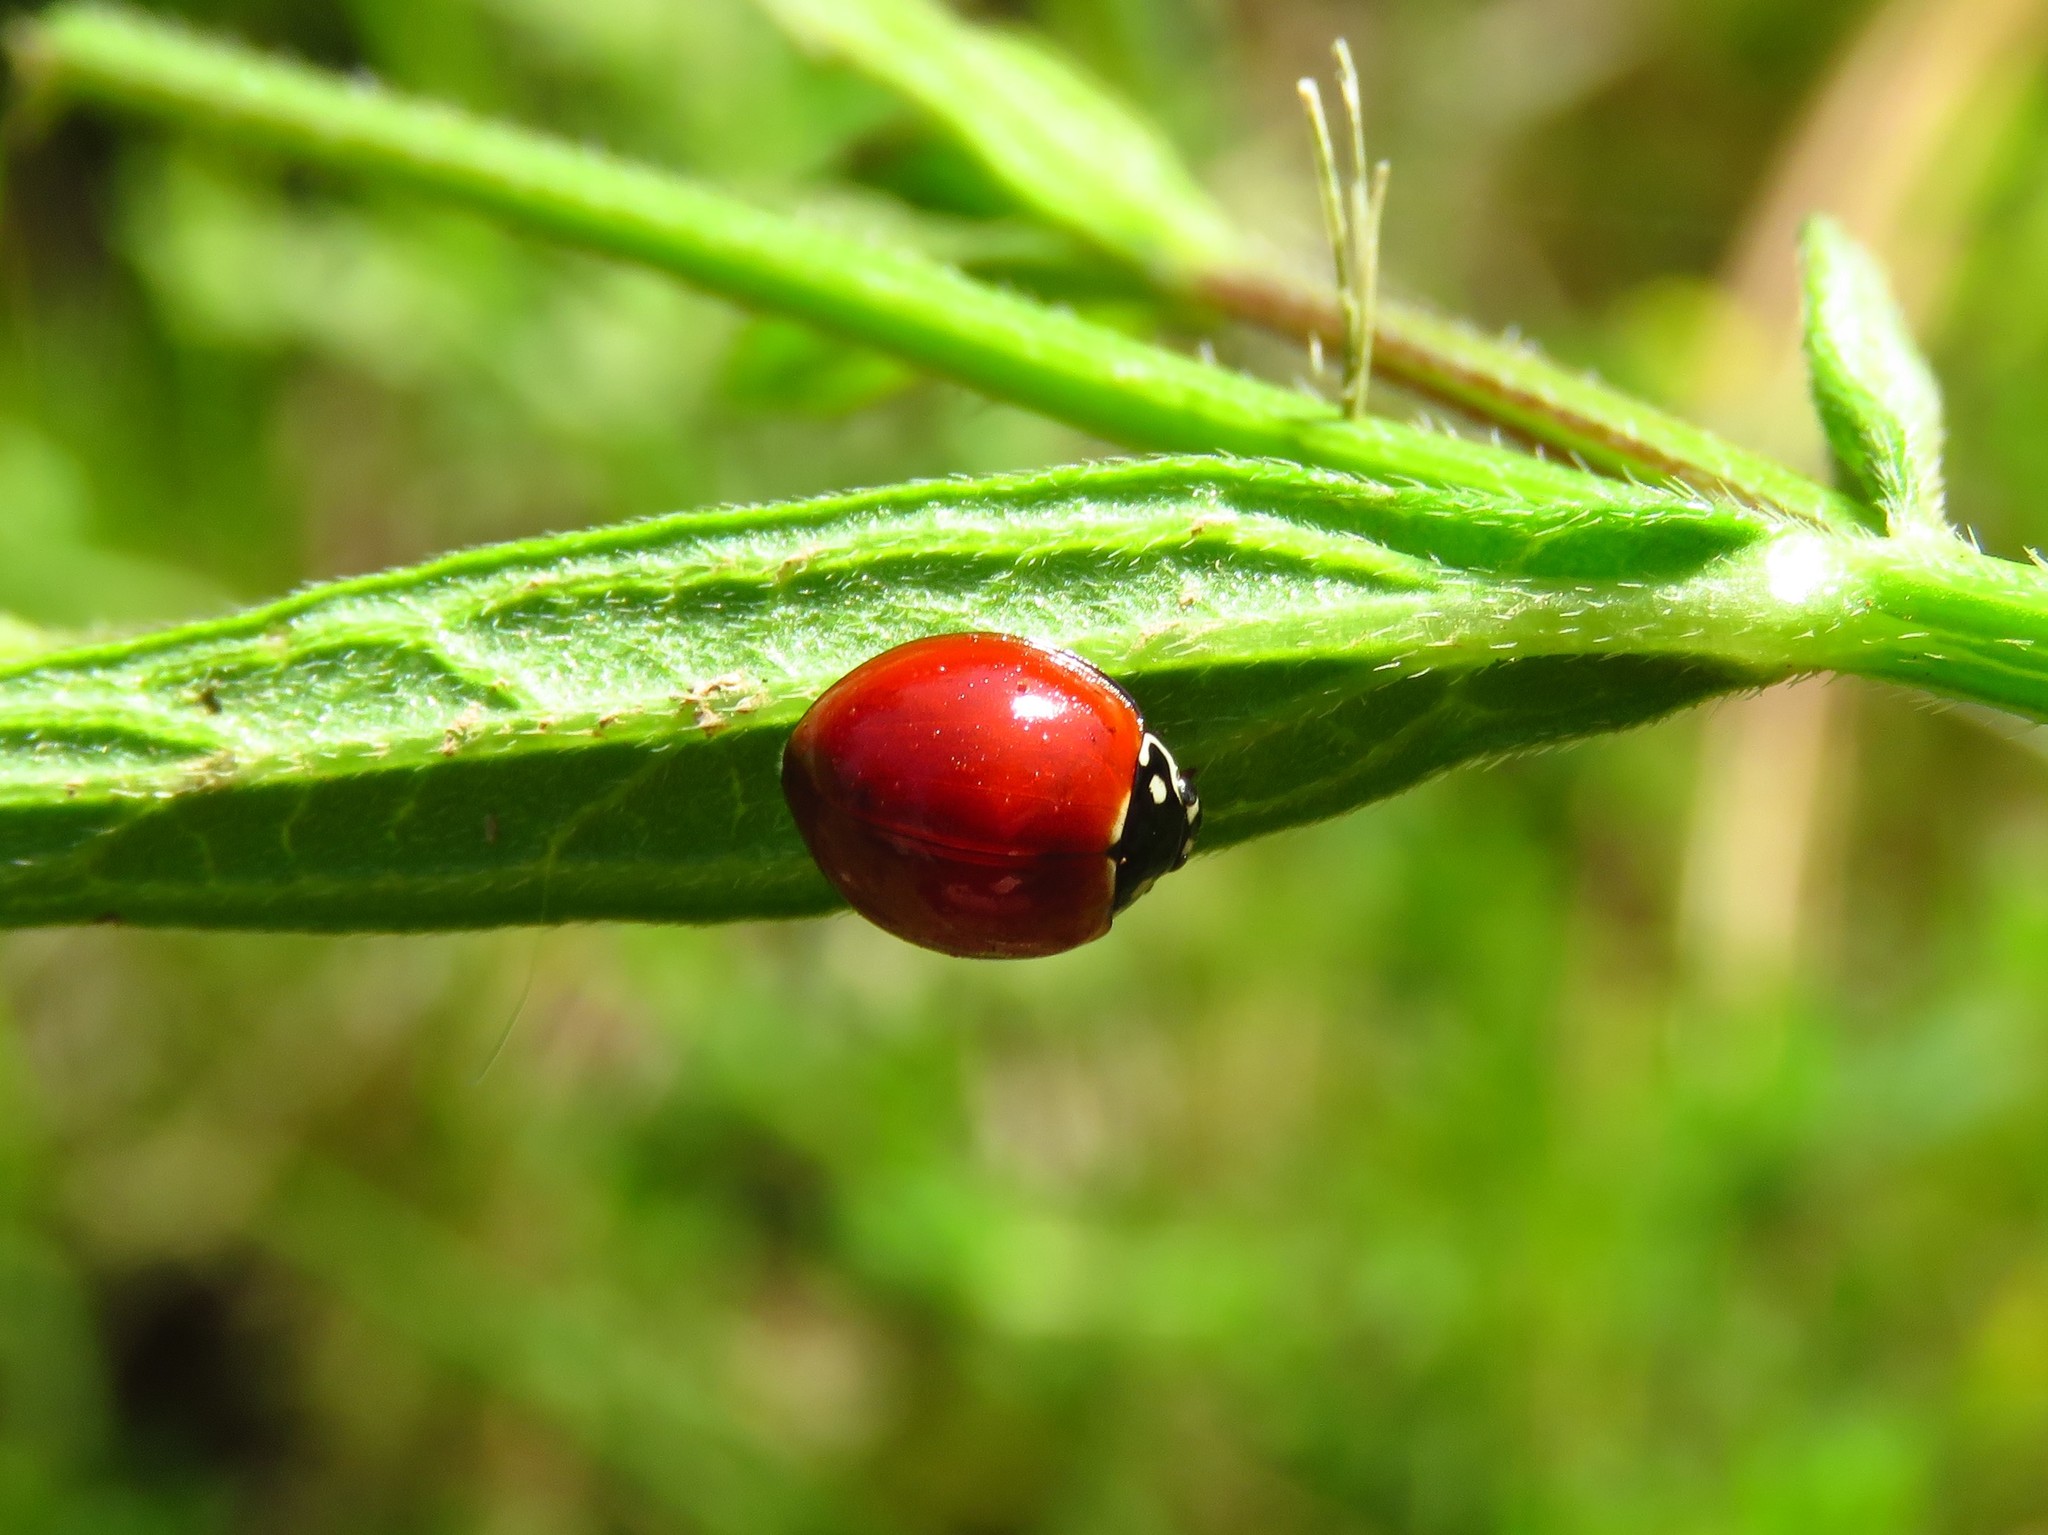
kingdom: Animalia
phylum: Arthropoda
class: Insecta
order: Coleoptera
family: Coccinellidae
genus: Cycloneda
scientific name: Cycloneda sanguinea
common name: Ladybird beetle
